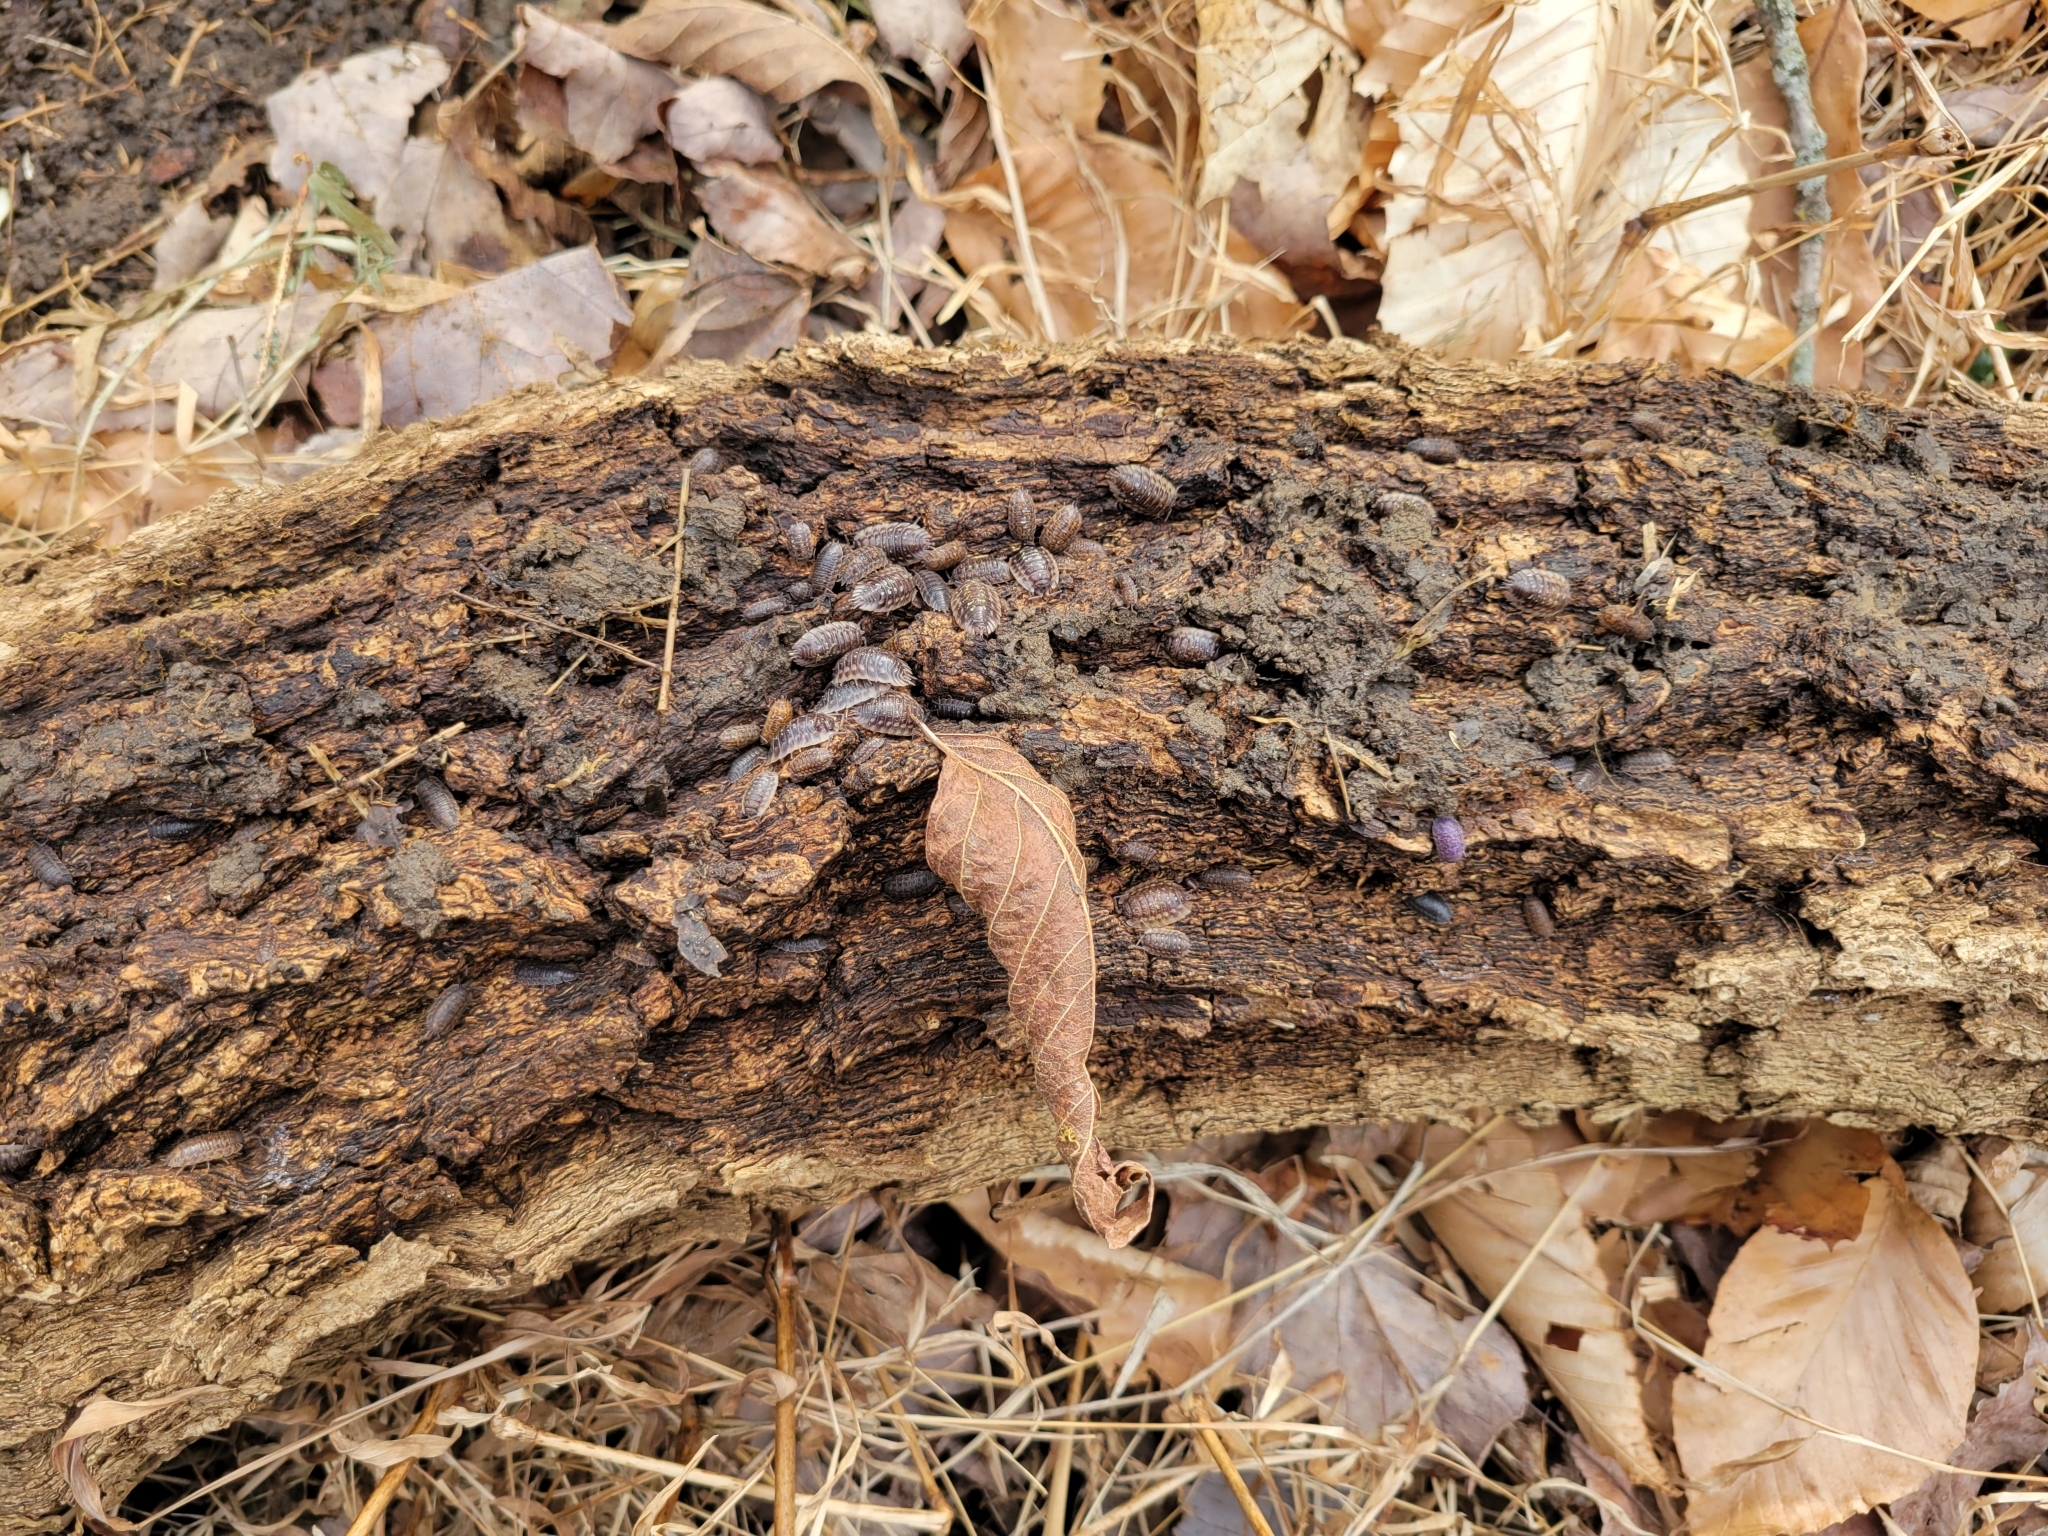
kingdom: Viruses
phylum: Nucleocytoviricota
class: Megaviricetes
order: Pimascovirales
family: Iridoviridae
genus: Iridovirus
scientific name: Iridovirus Invertebrate iridescent virus 31
